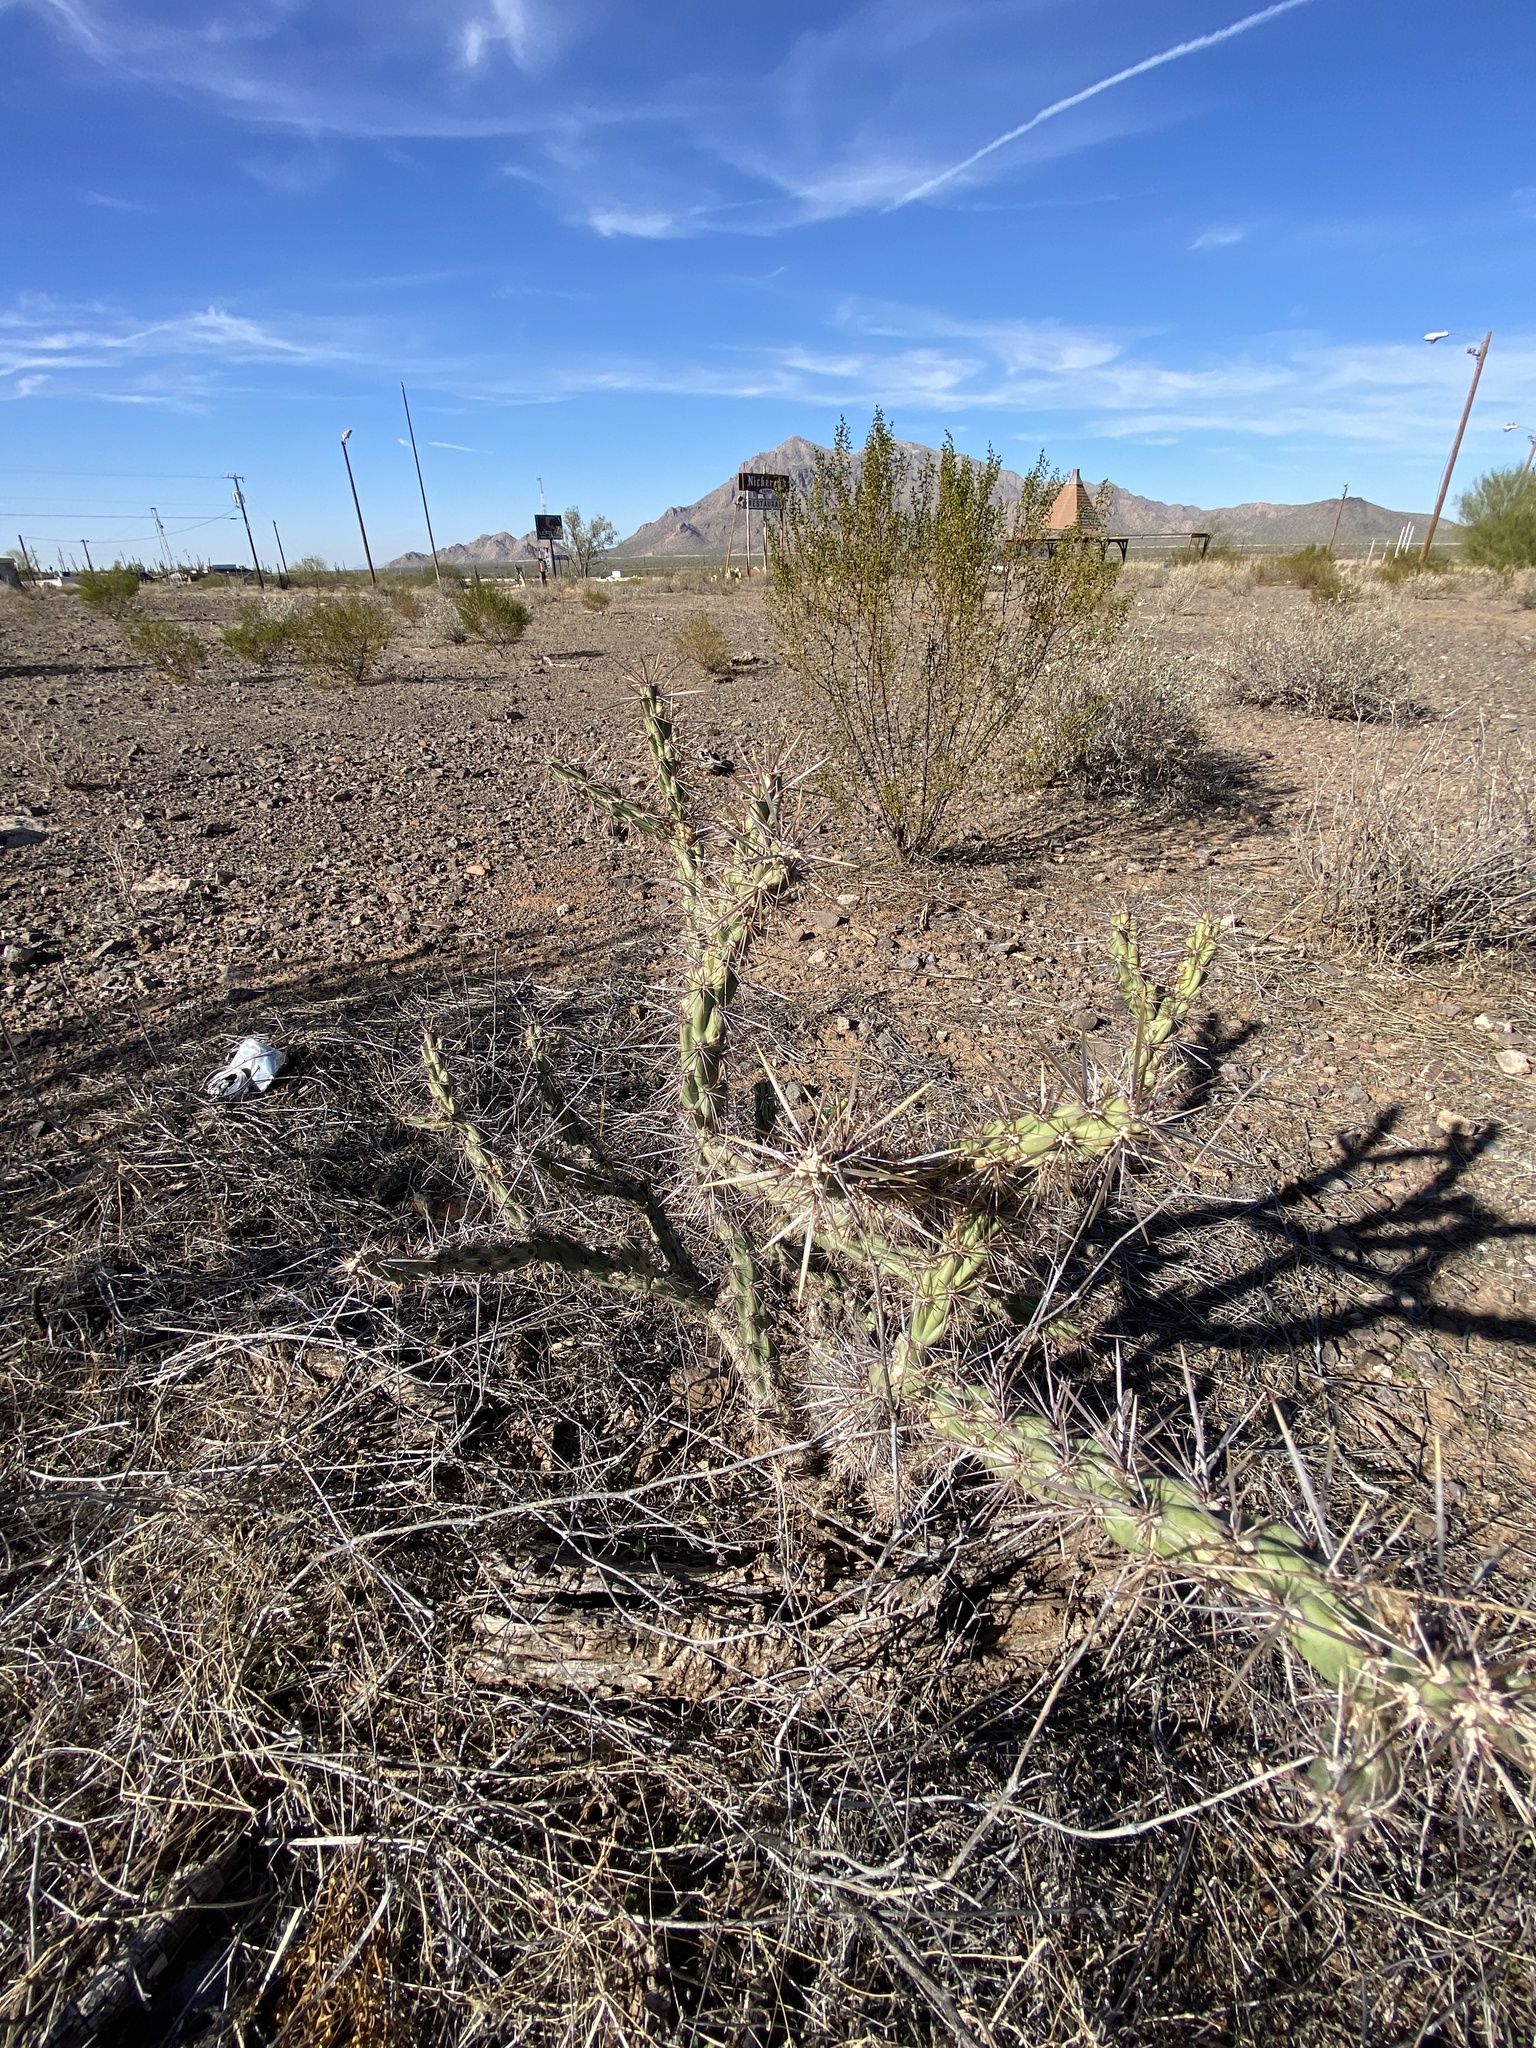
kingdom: Plantae
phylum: Tracheophyta
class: Magnoliopsida
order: Caryophyllales
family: Cactaceae
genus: Cylindropuntia
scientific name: Cylindropuntia acanthocarpa
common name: Buckhorn cholla
